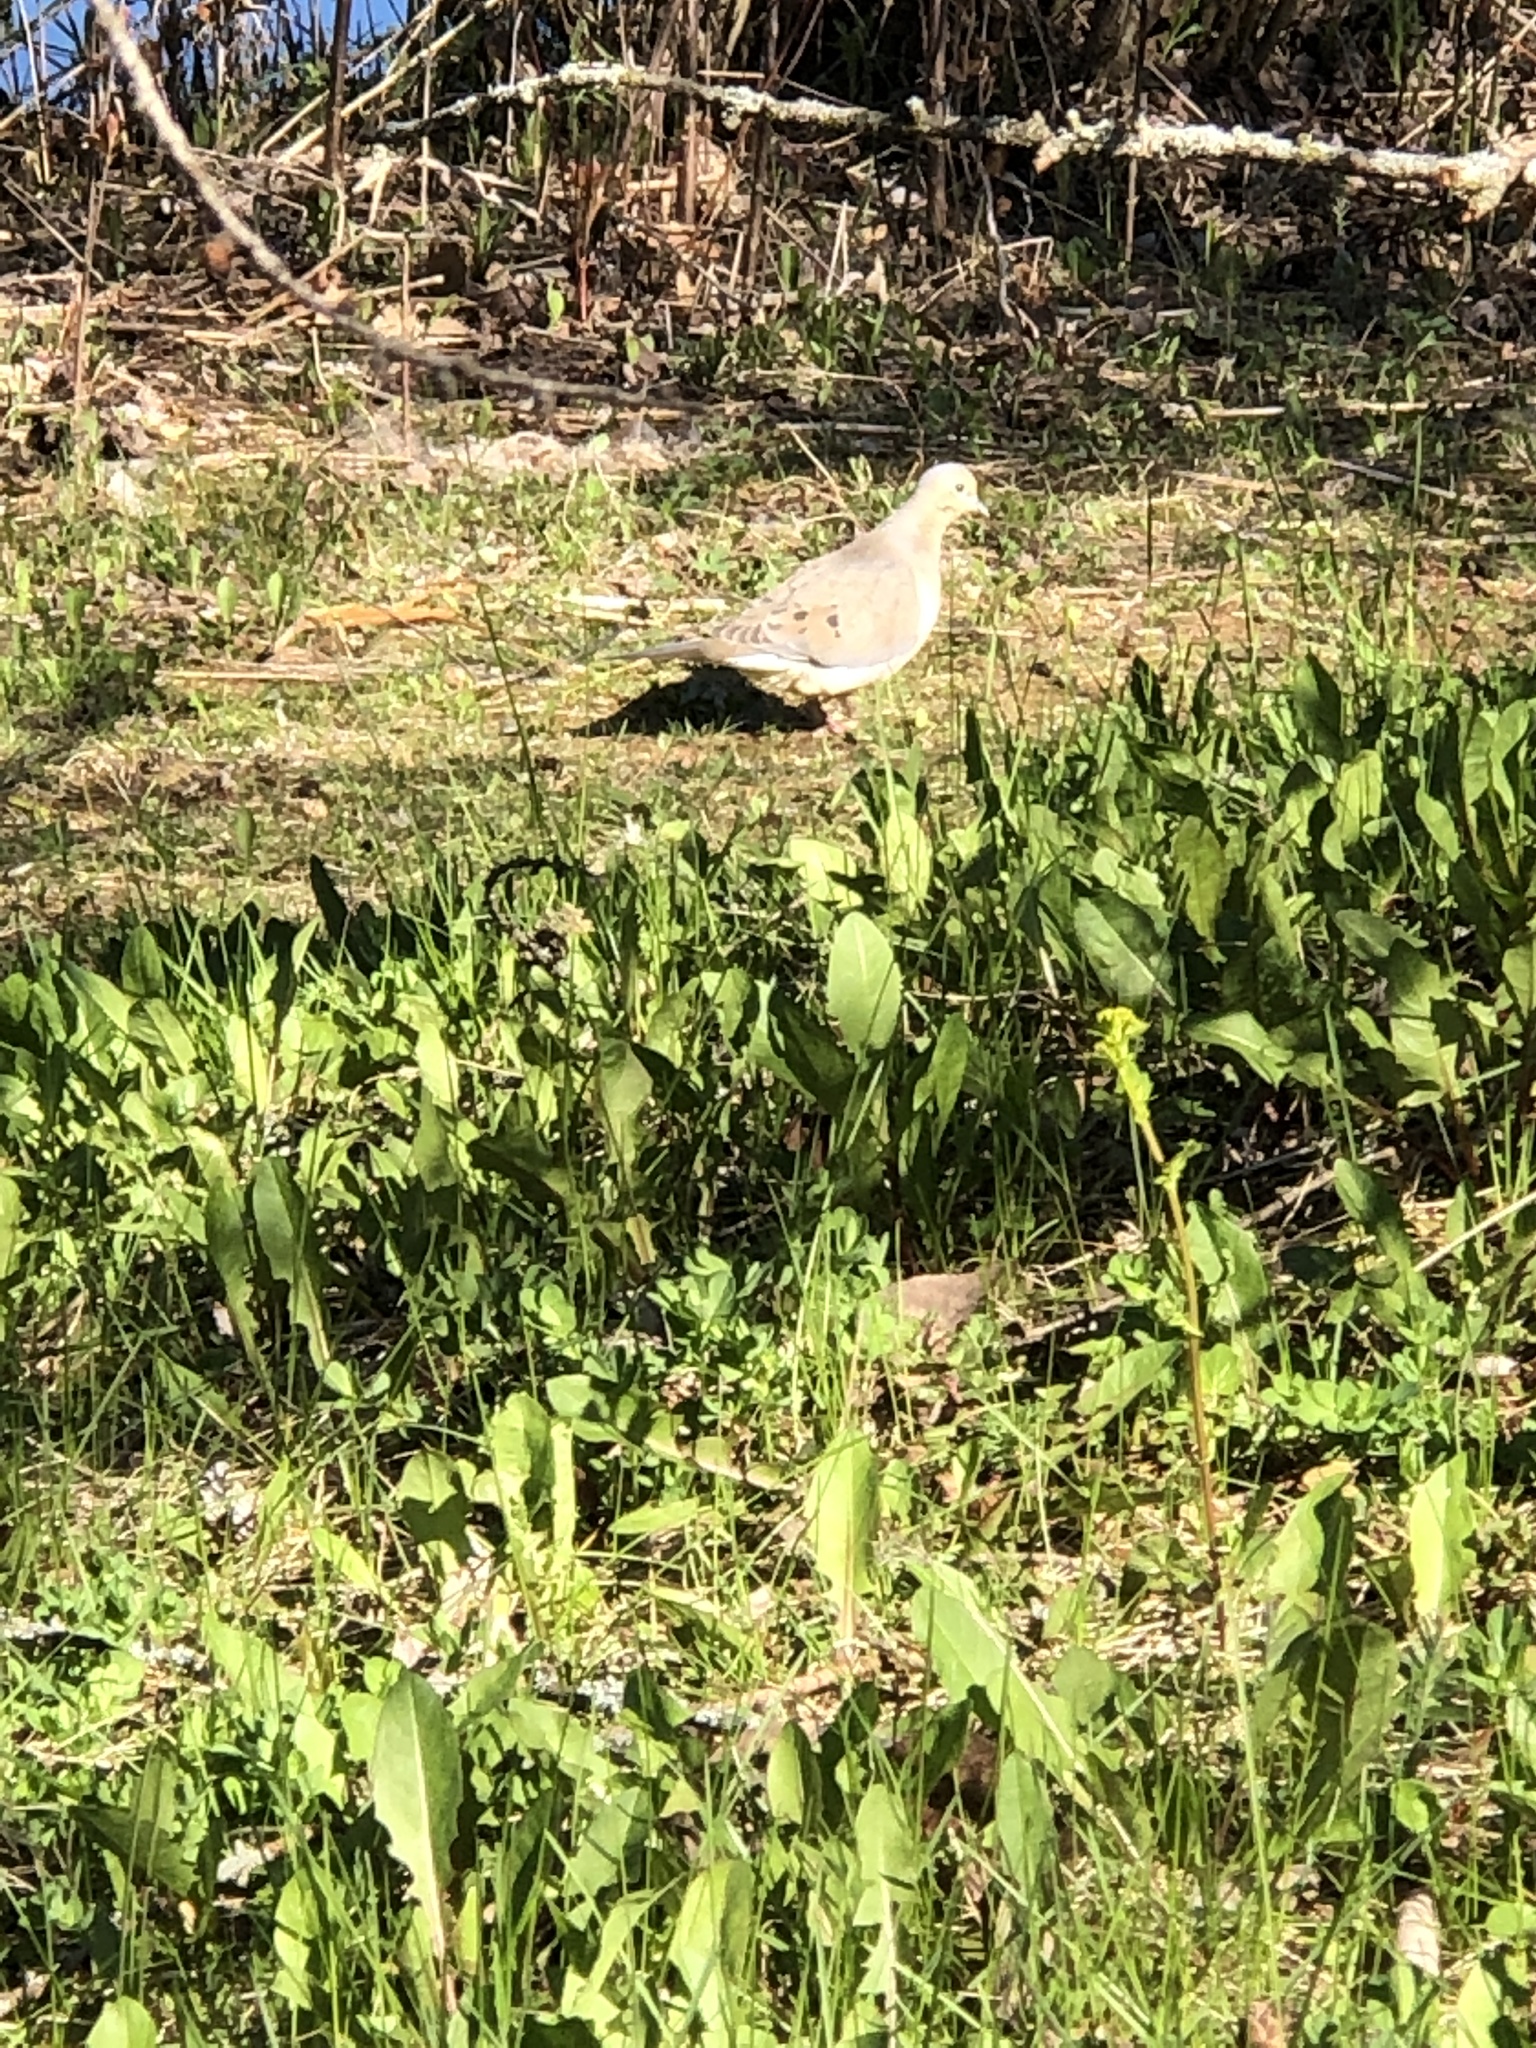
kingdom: Animalia
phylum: Chordata
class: Aves
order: Columbiformes
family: Columbidae
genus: Zenaida
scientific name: Zenaida macroura
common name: Mourning dove
